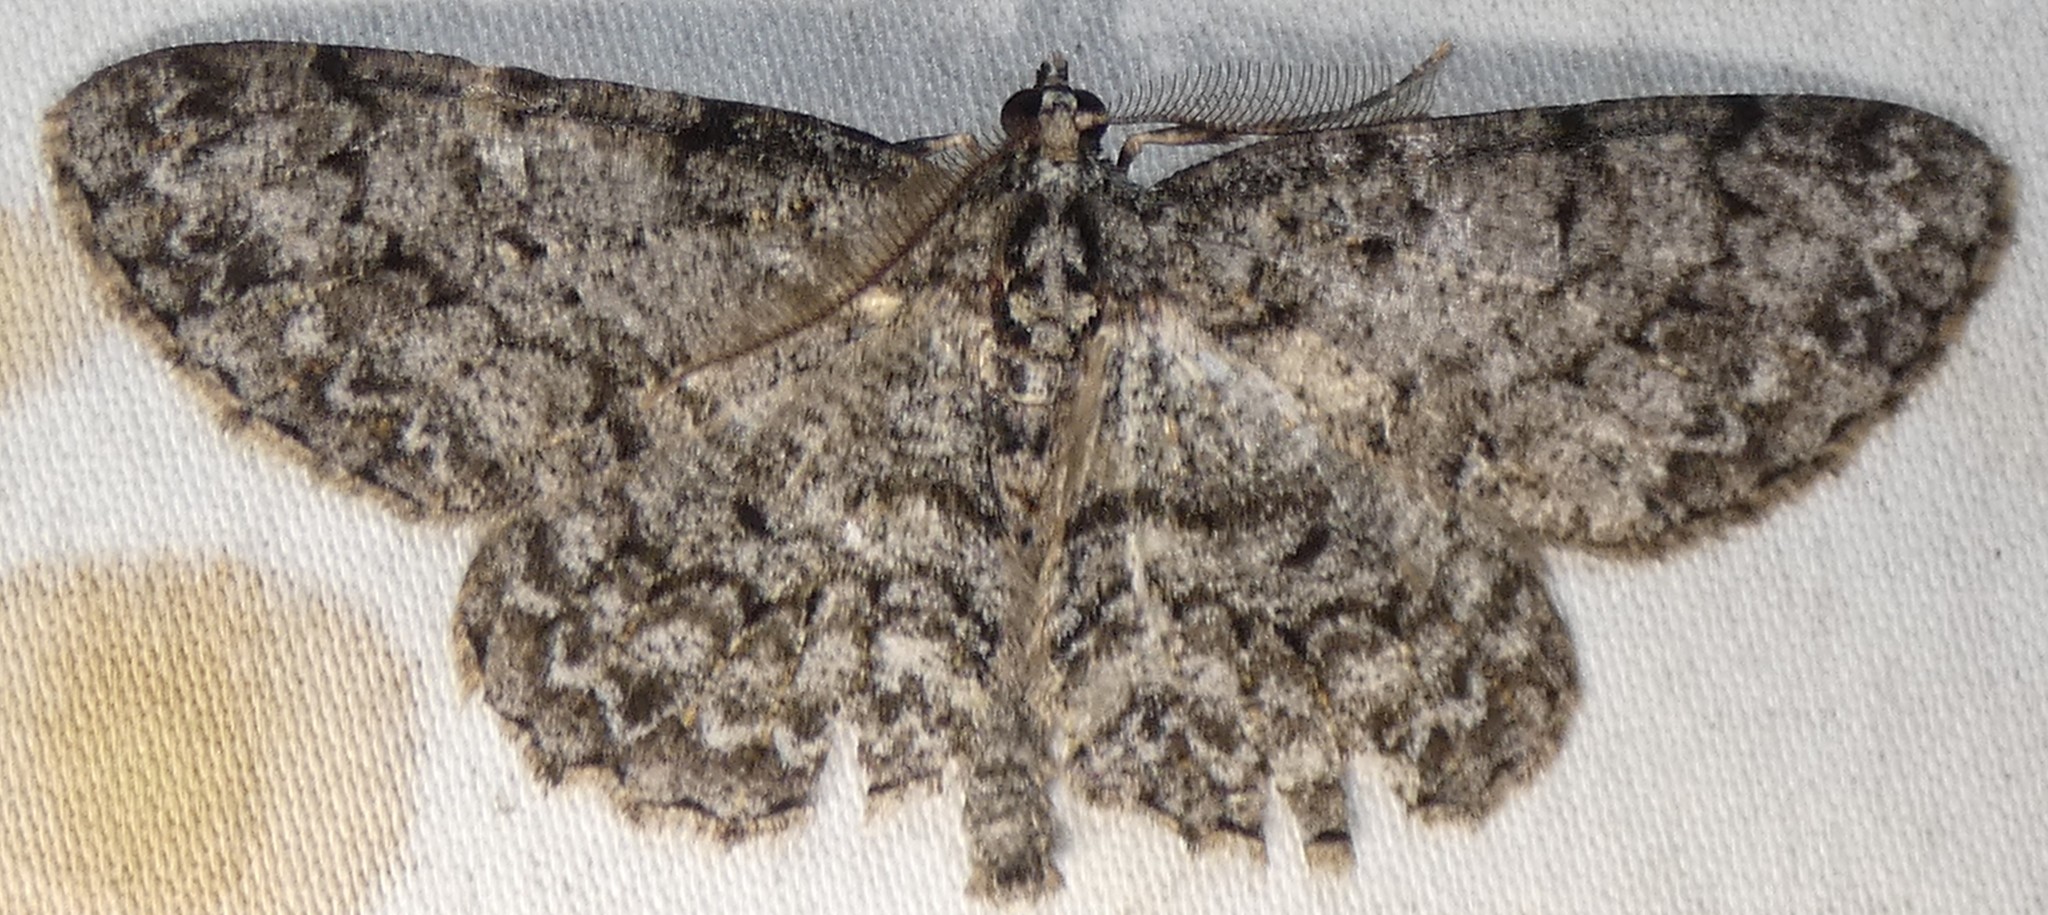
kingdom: Animalia
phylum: Arthropoda
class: Insecta
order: Lepidoptera
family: Geometridae
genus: Protoboarmia
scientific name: Protoboarmia porcelaria
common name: Porcelain gray
